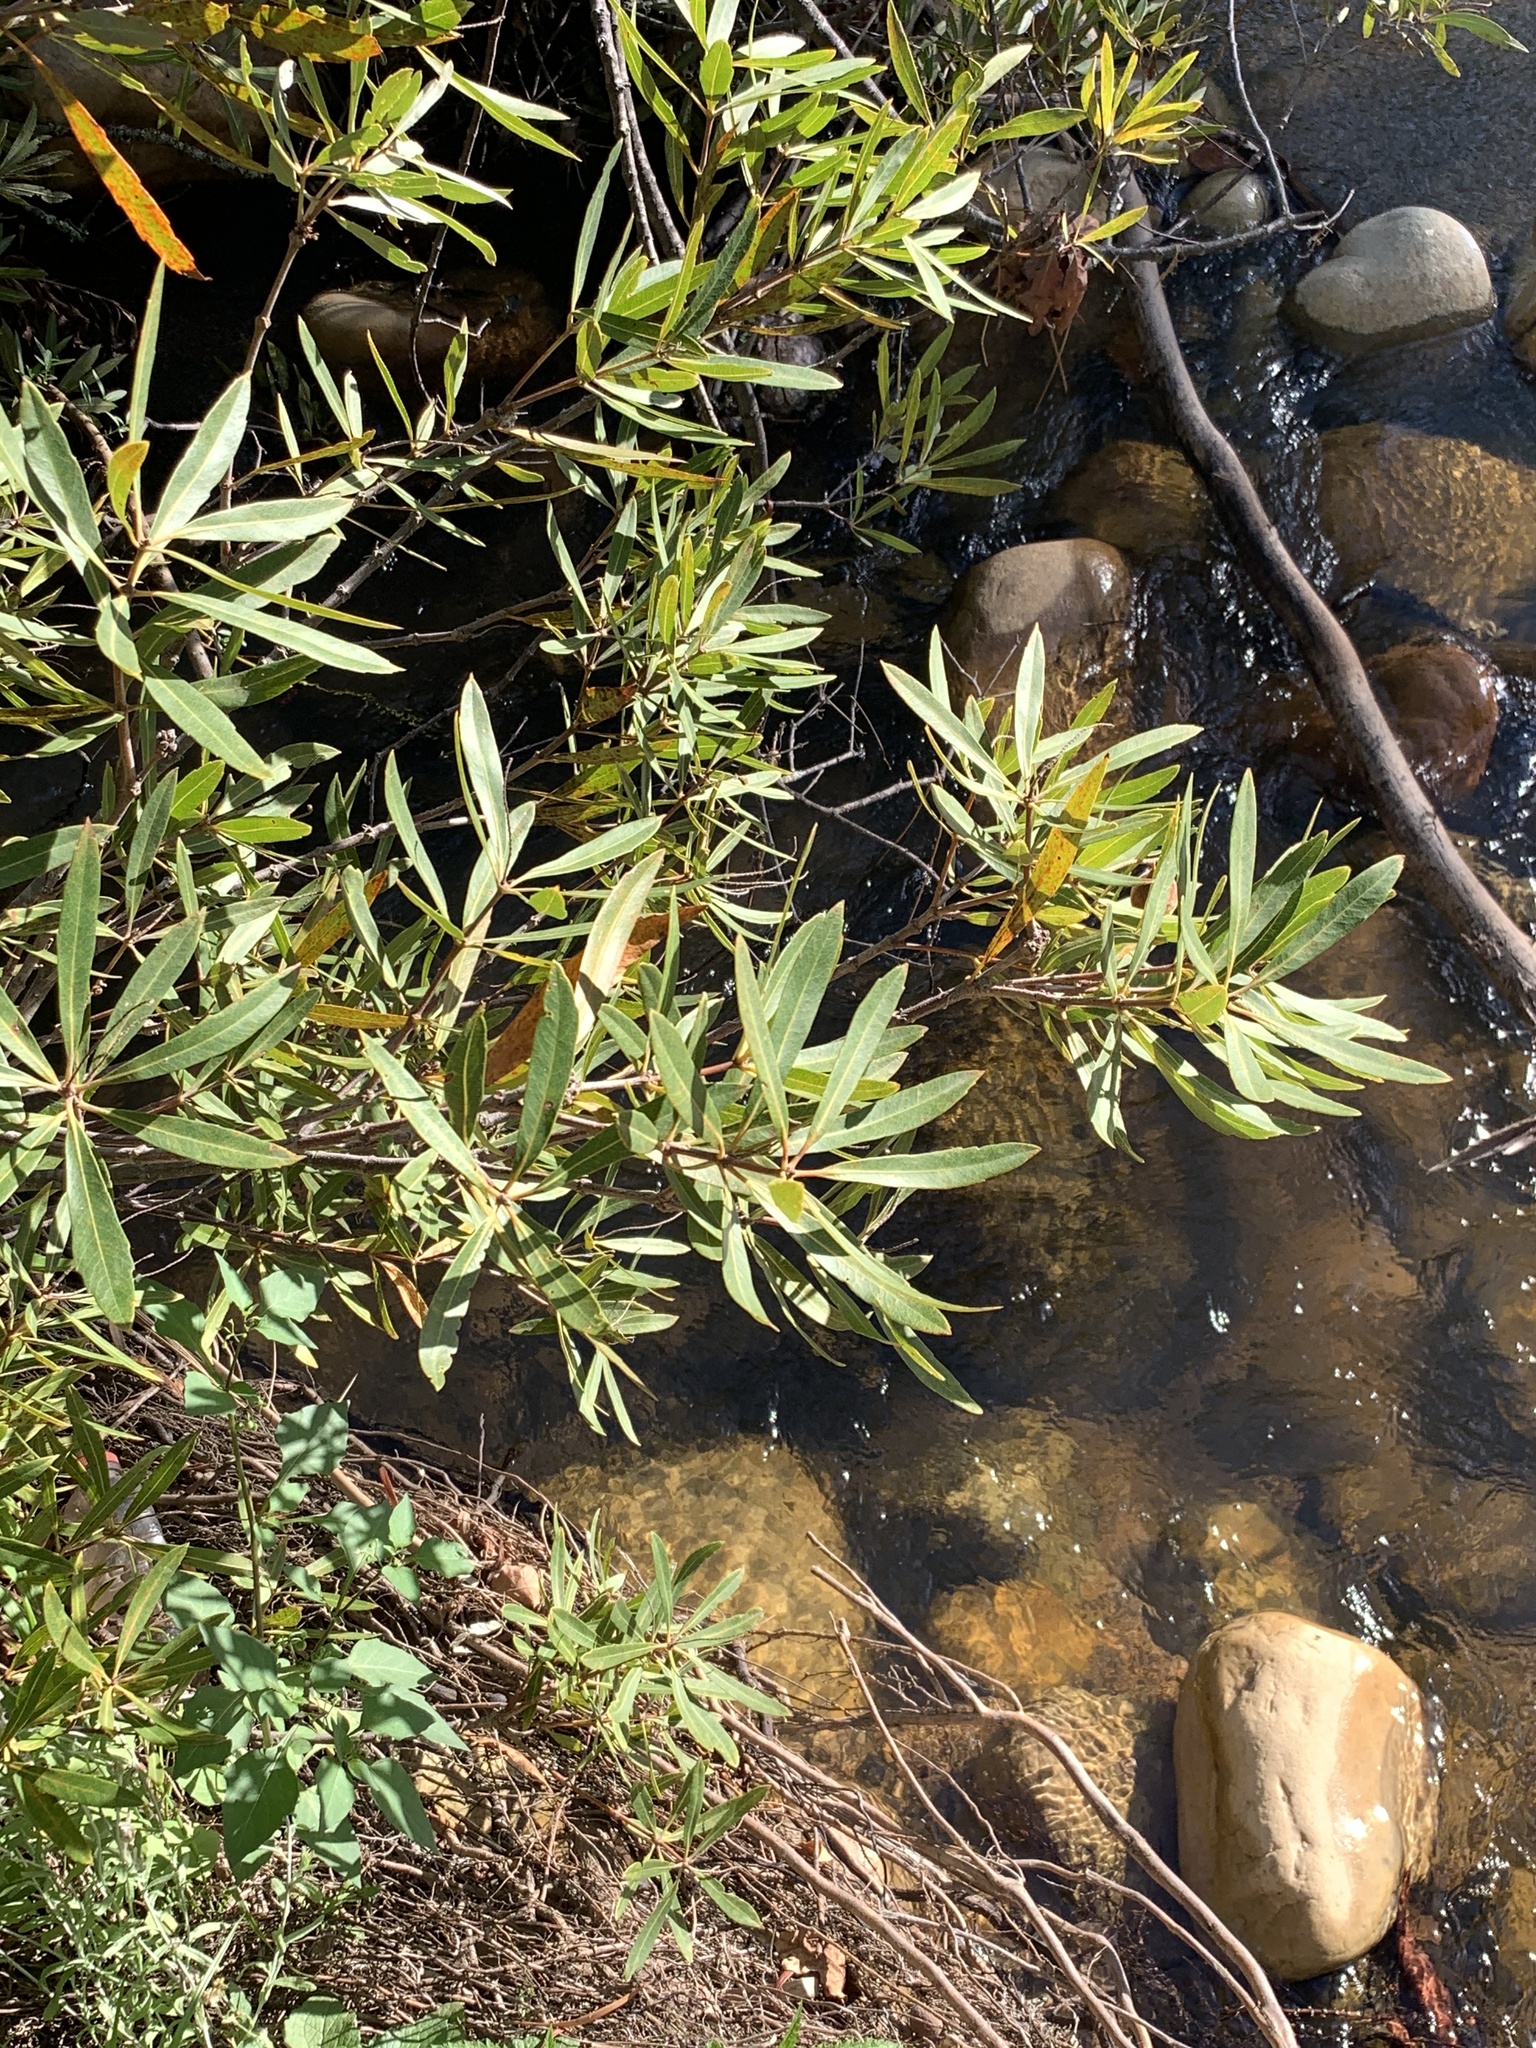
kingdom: Plantae
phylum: Tracheophyta
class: Magnoliopsida
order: Proteales
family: Proteaceae
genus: Brabejum
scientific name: Brabejum stellatifolium
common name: Wild almond
